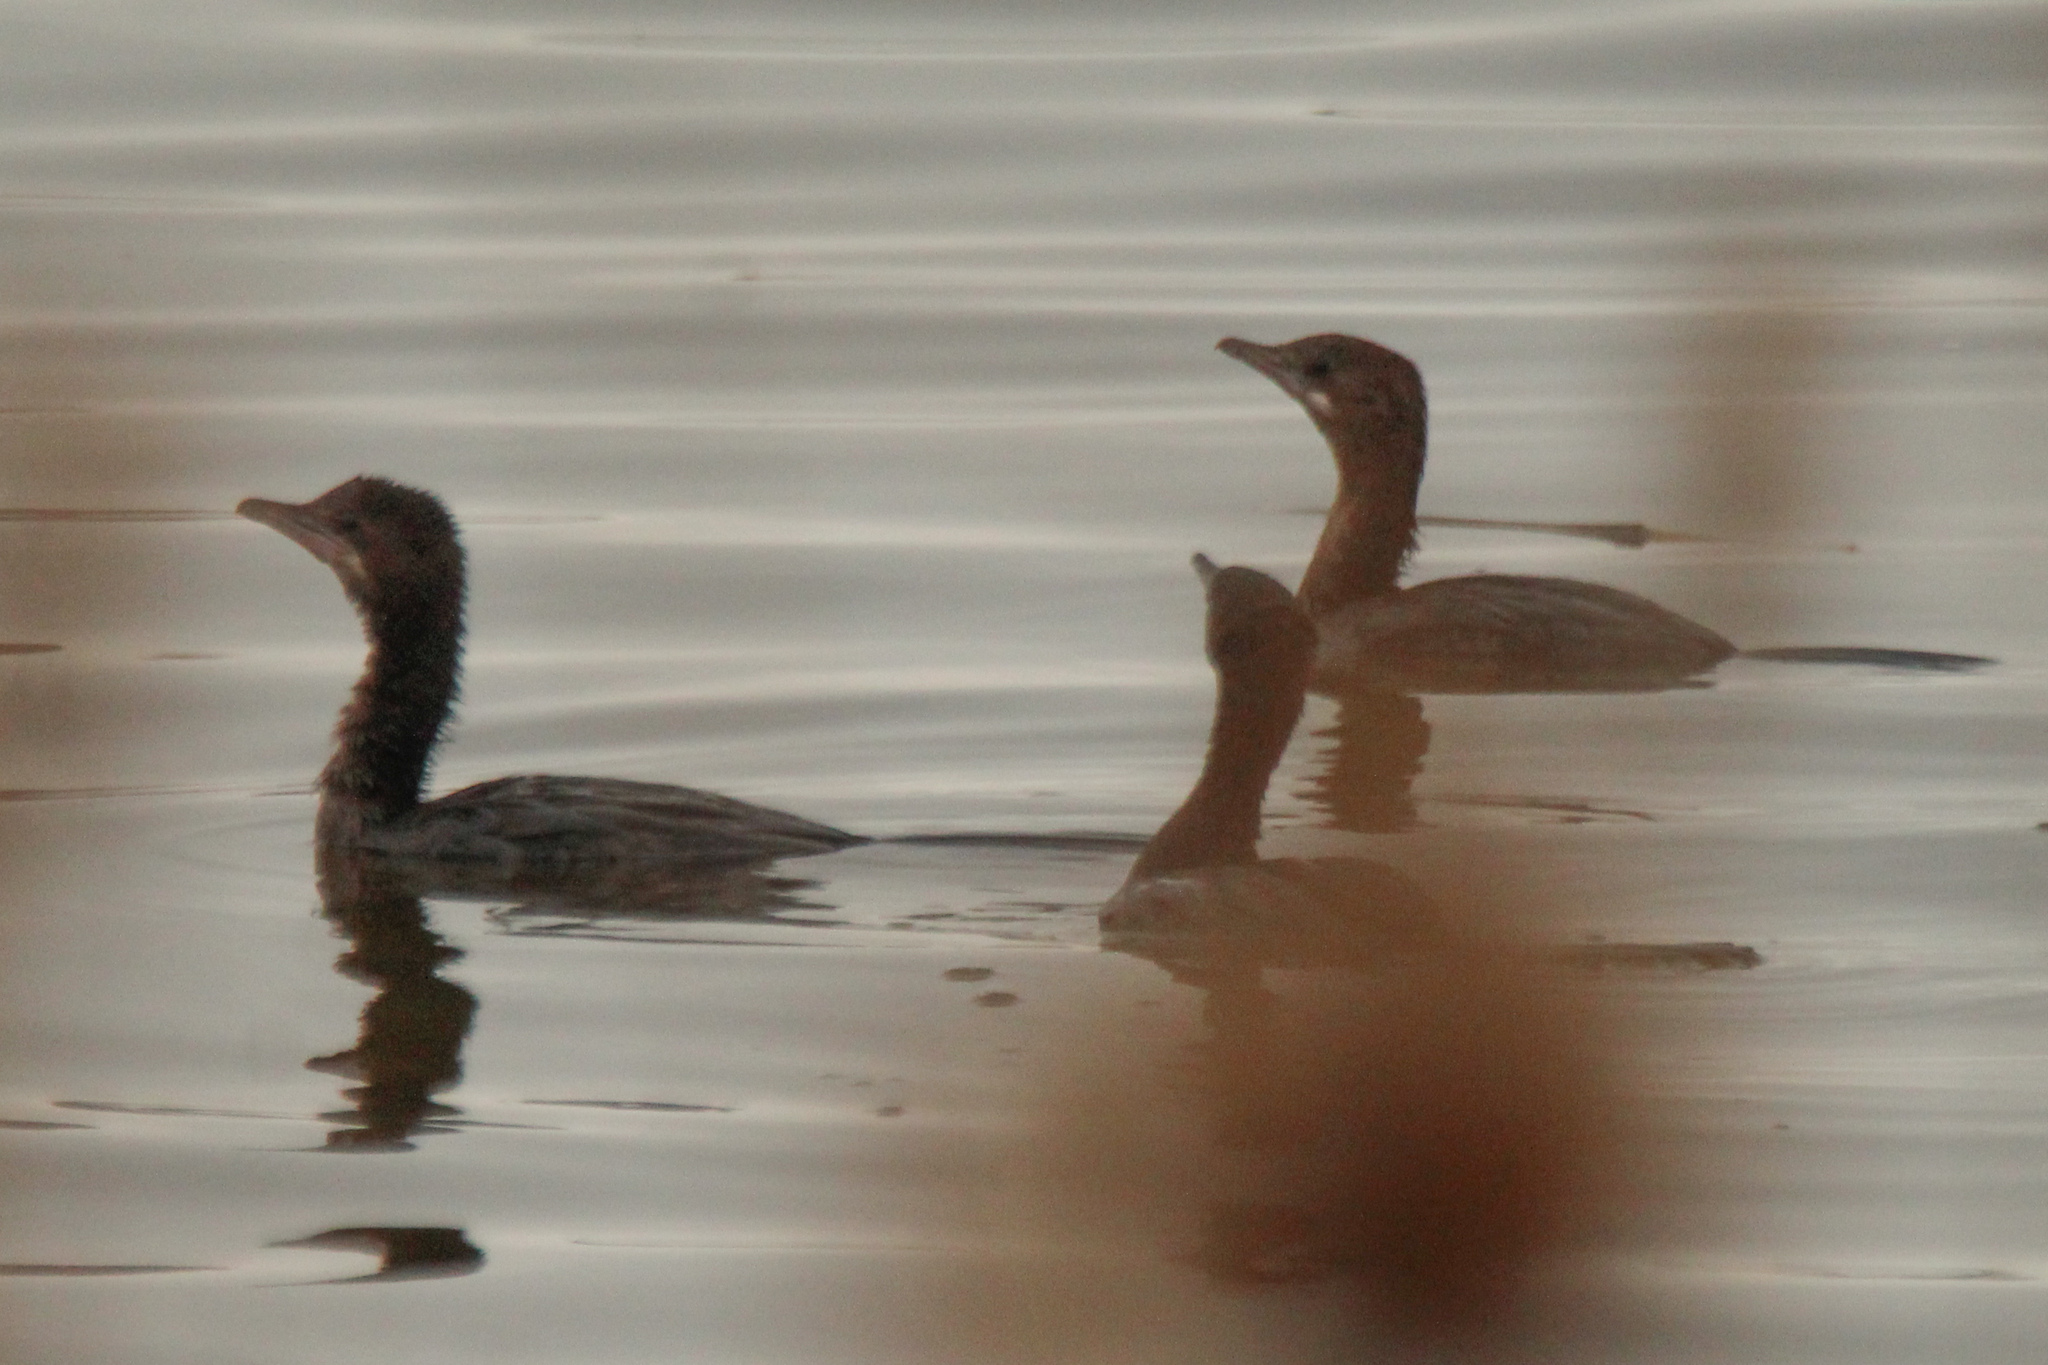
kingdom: Animalia
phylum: Chordata
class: Aves
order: Suliformes
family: Phalacrocoracidae
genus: Microcarbo
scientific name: Microcarbo pygmaeus
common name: Pygmy cormorant
